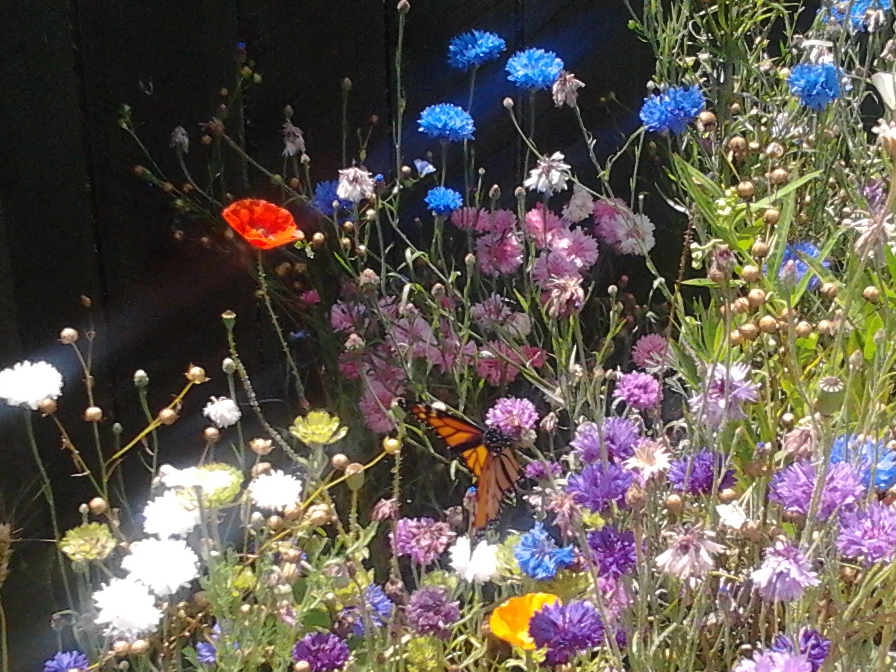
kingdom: Animalia
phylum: Arthropoda
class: Insecta
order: Lepidoptera
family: Nymphalidae
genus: Danaus
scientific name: Danaus plexippus
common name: Monarch
